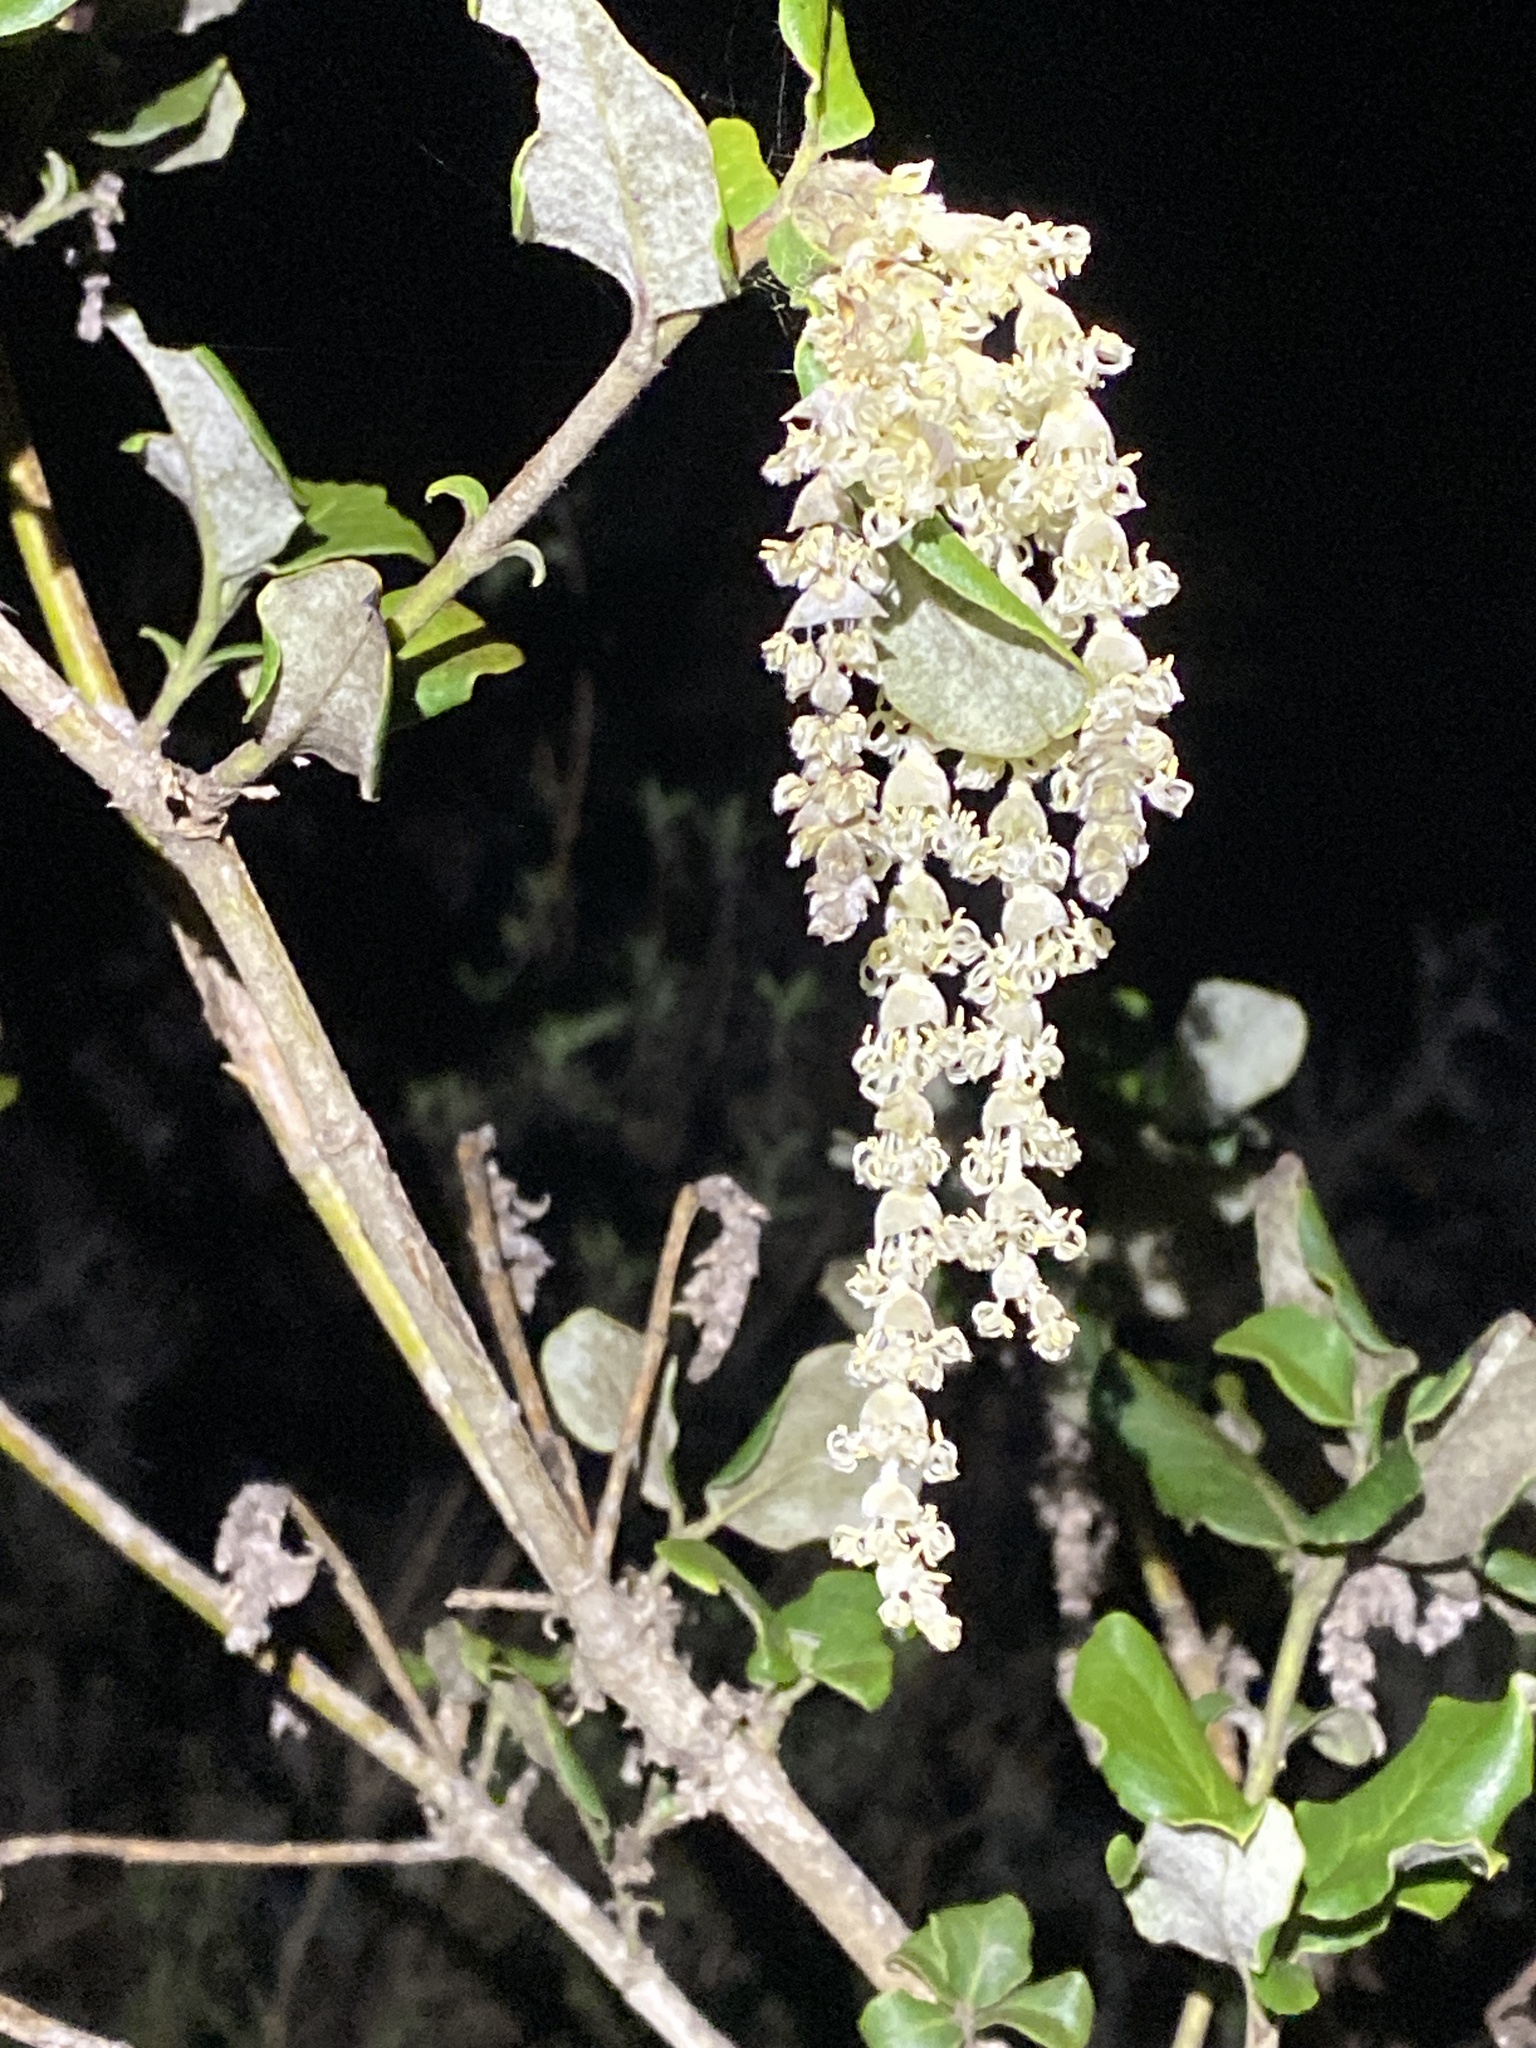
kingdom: Plantae
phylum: Tracheophyta
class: Magnoliopsida
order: Garryales
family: Garryaceae
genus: Garrya
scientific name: Garrya elliptica
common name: Silk-tassel
